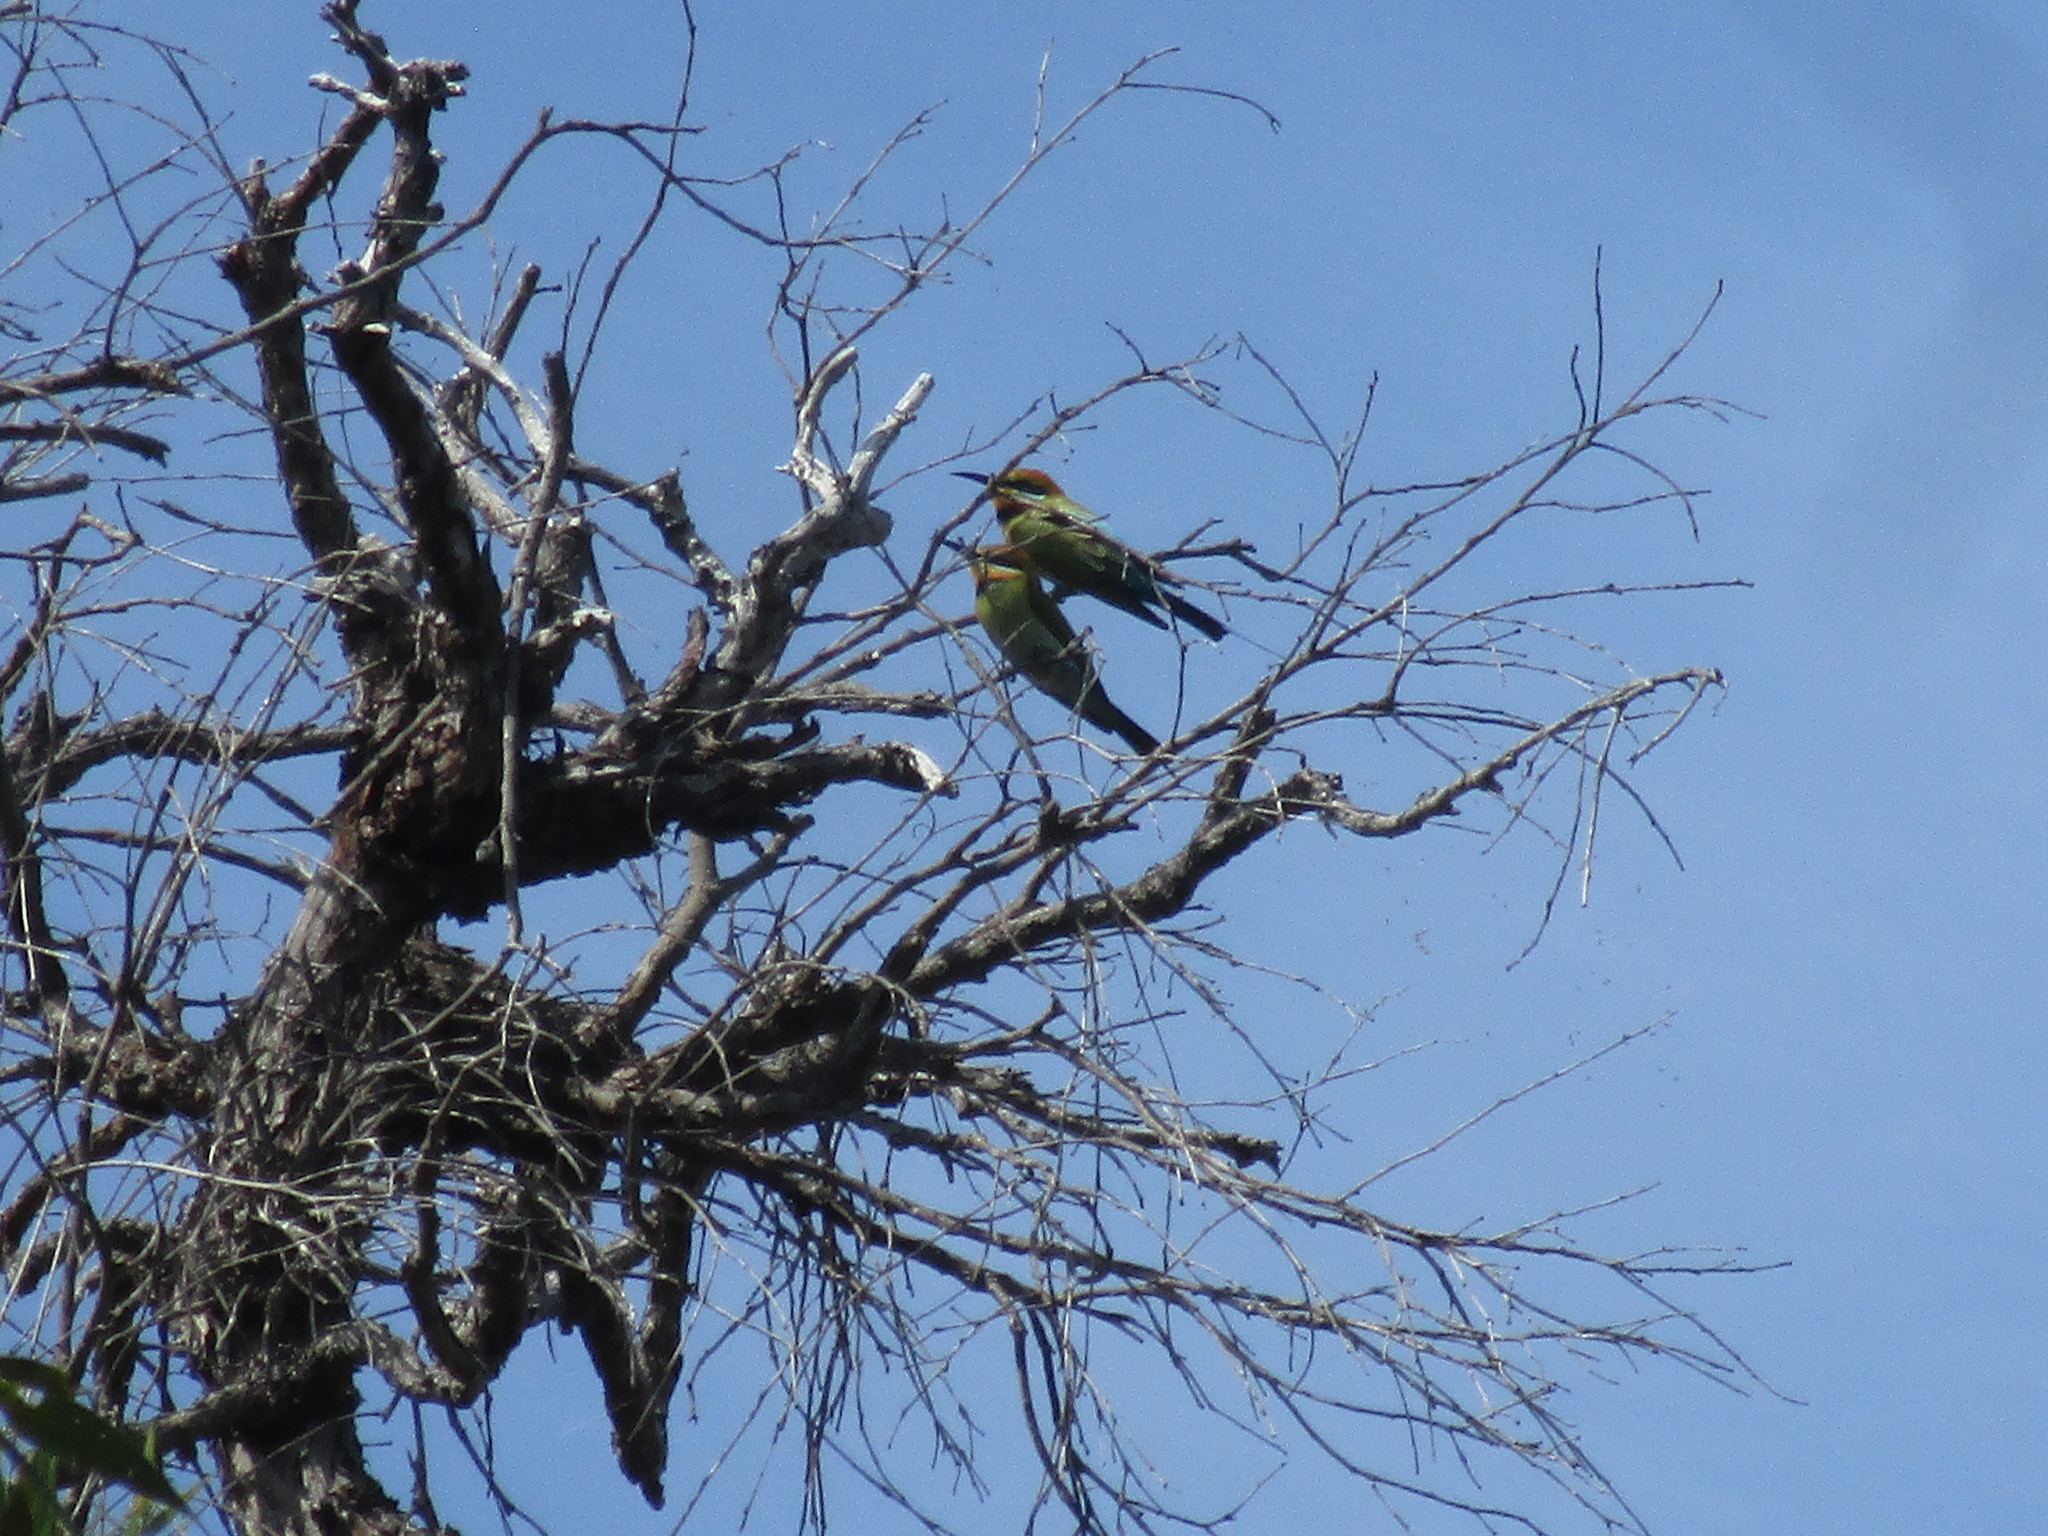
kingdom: Animalia
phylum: Chordata
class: Aves
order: Coraciiformes
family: Meropidae
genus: Merops
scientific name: Merops ornatus
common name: Rainbow bee-eater
